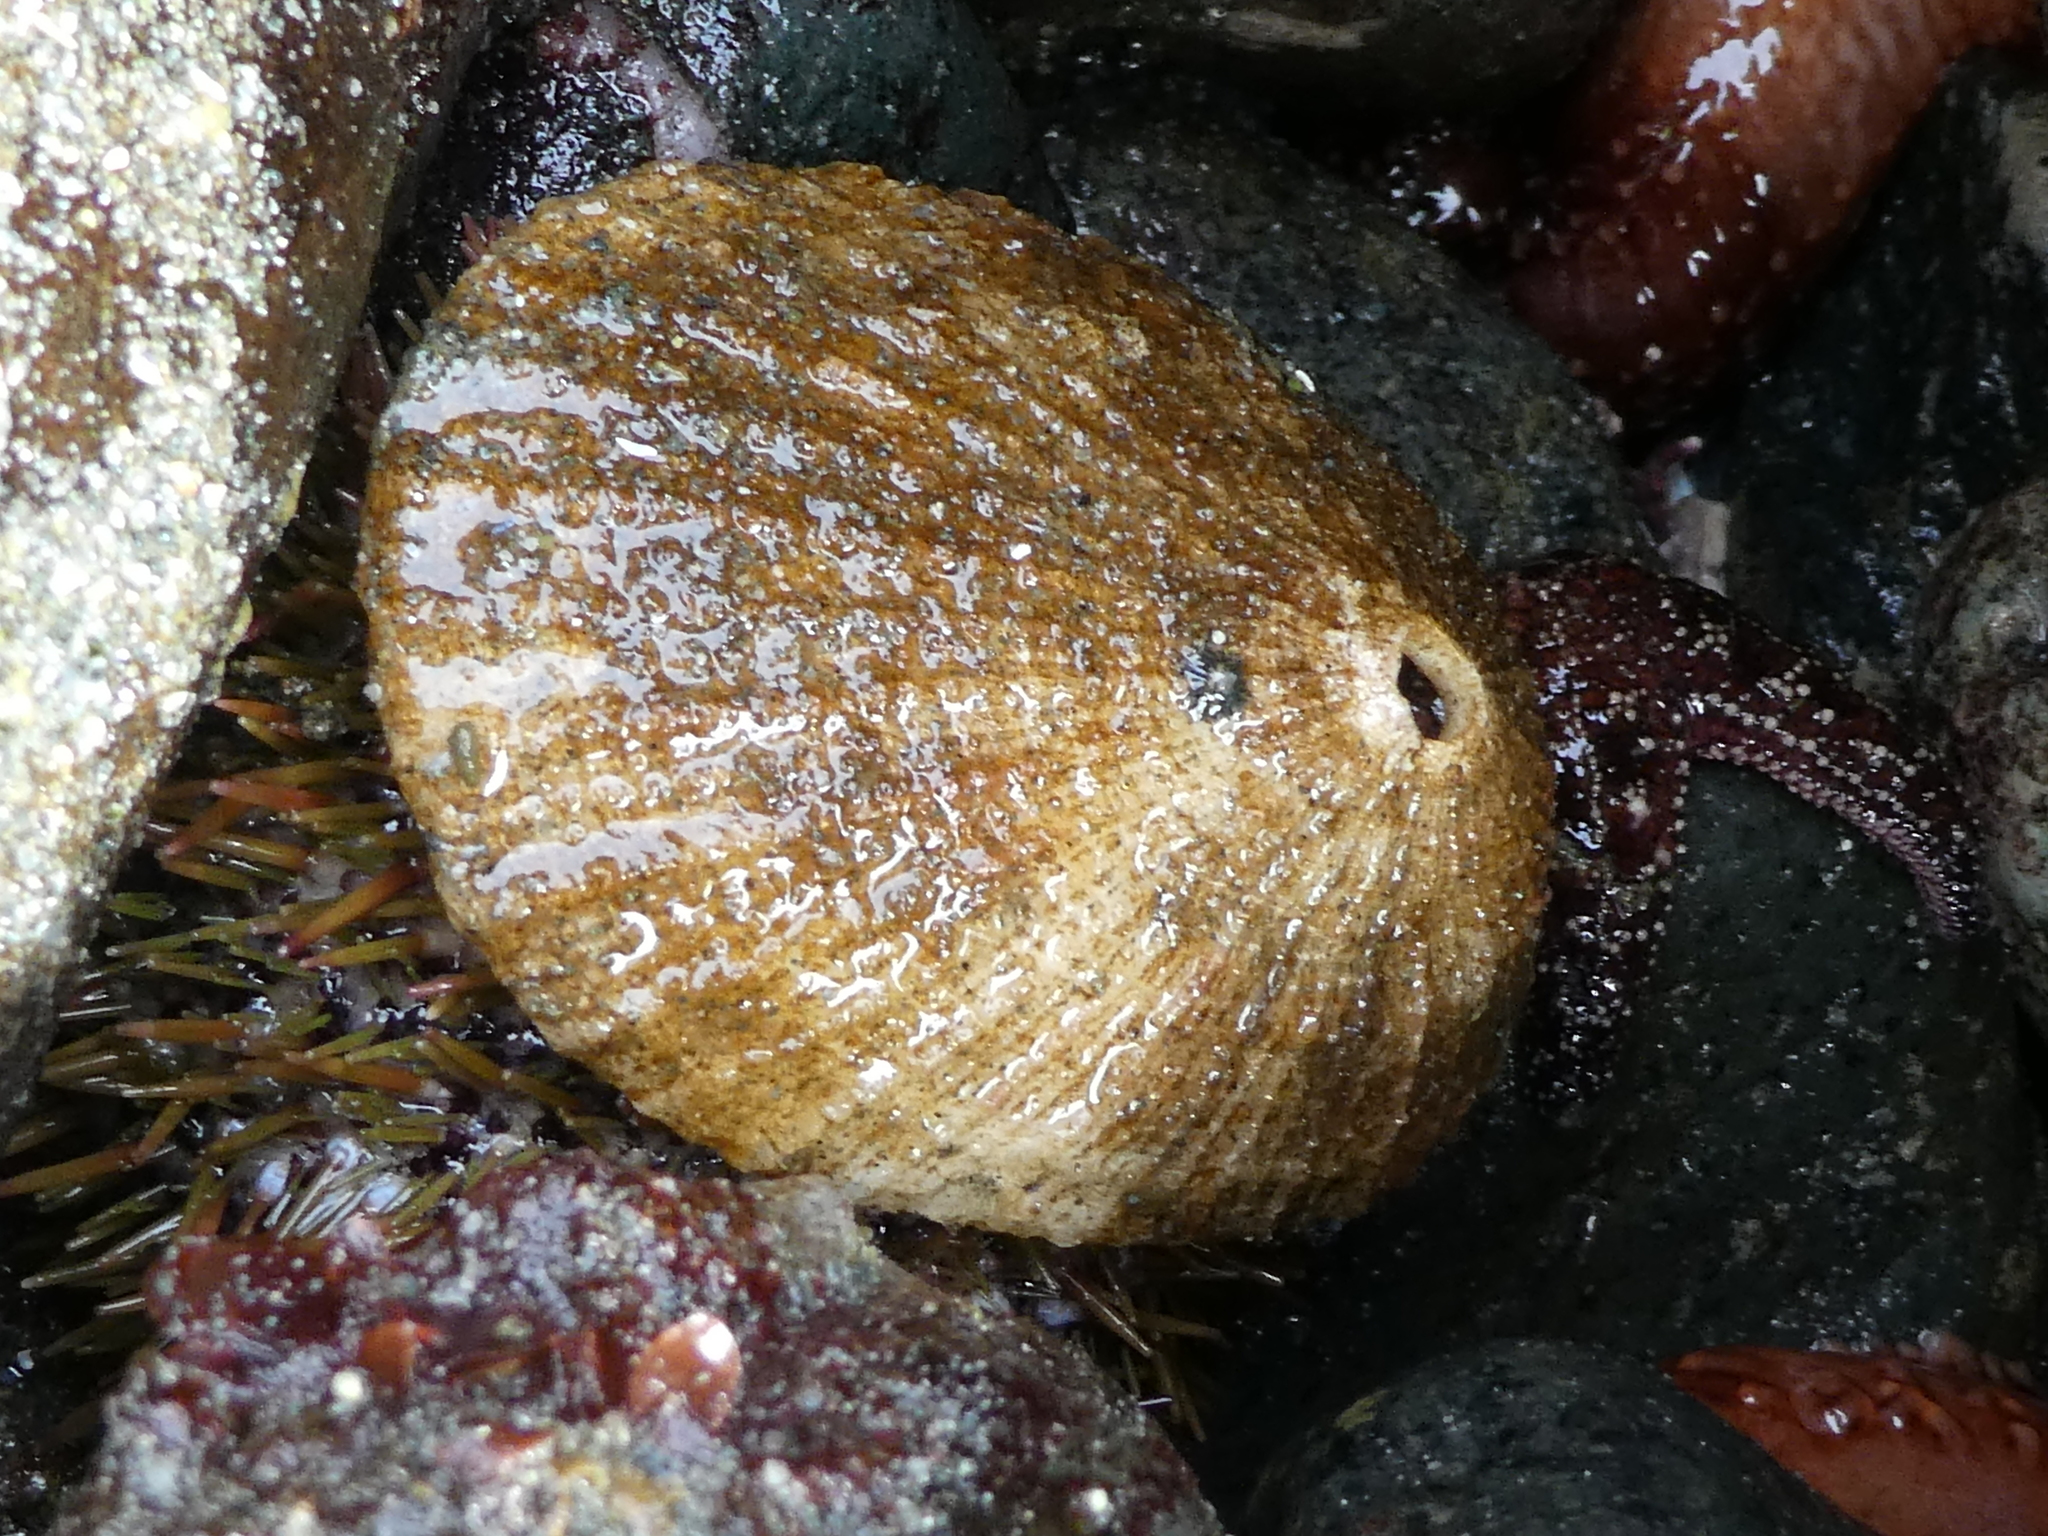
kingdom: Animalia
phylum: Mollusca
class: Gastropoda
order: Lepetellida
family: Fissurellidae
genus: Diodora
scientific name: Diodora aspera
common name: Rough keyhole limpet
